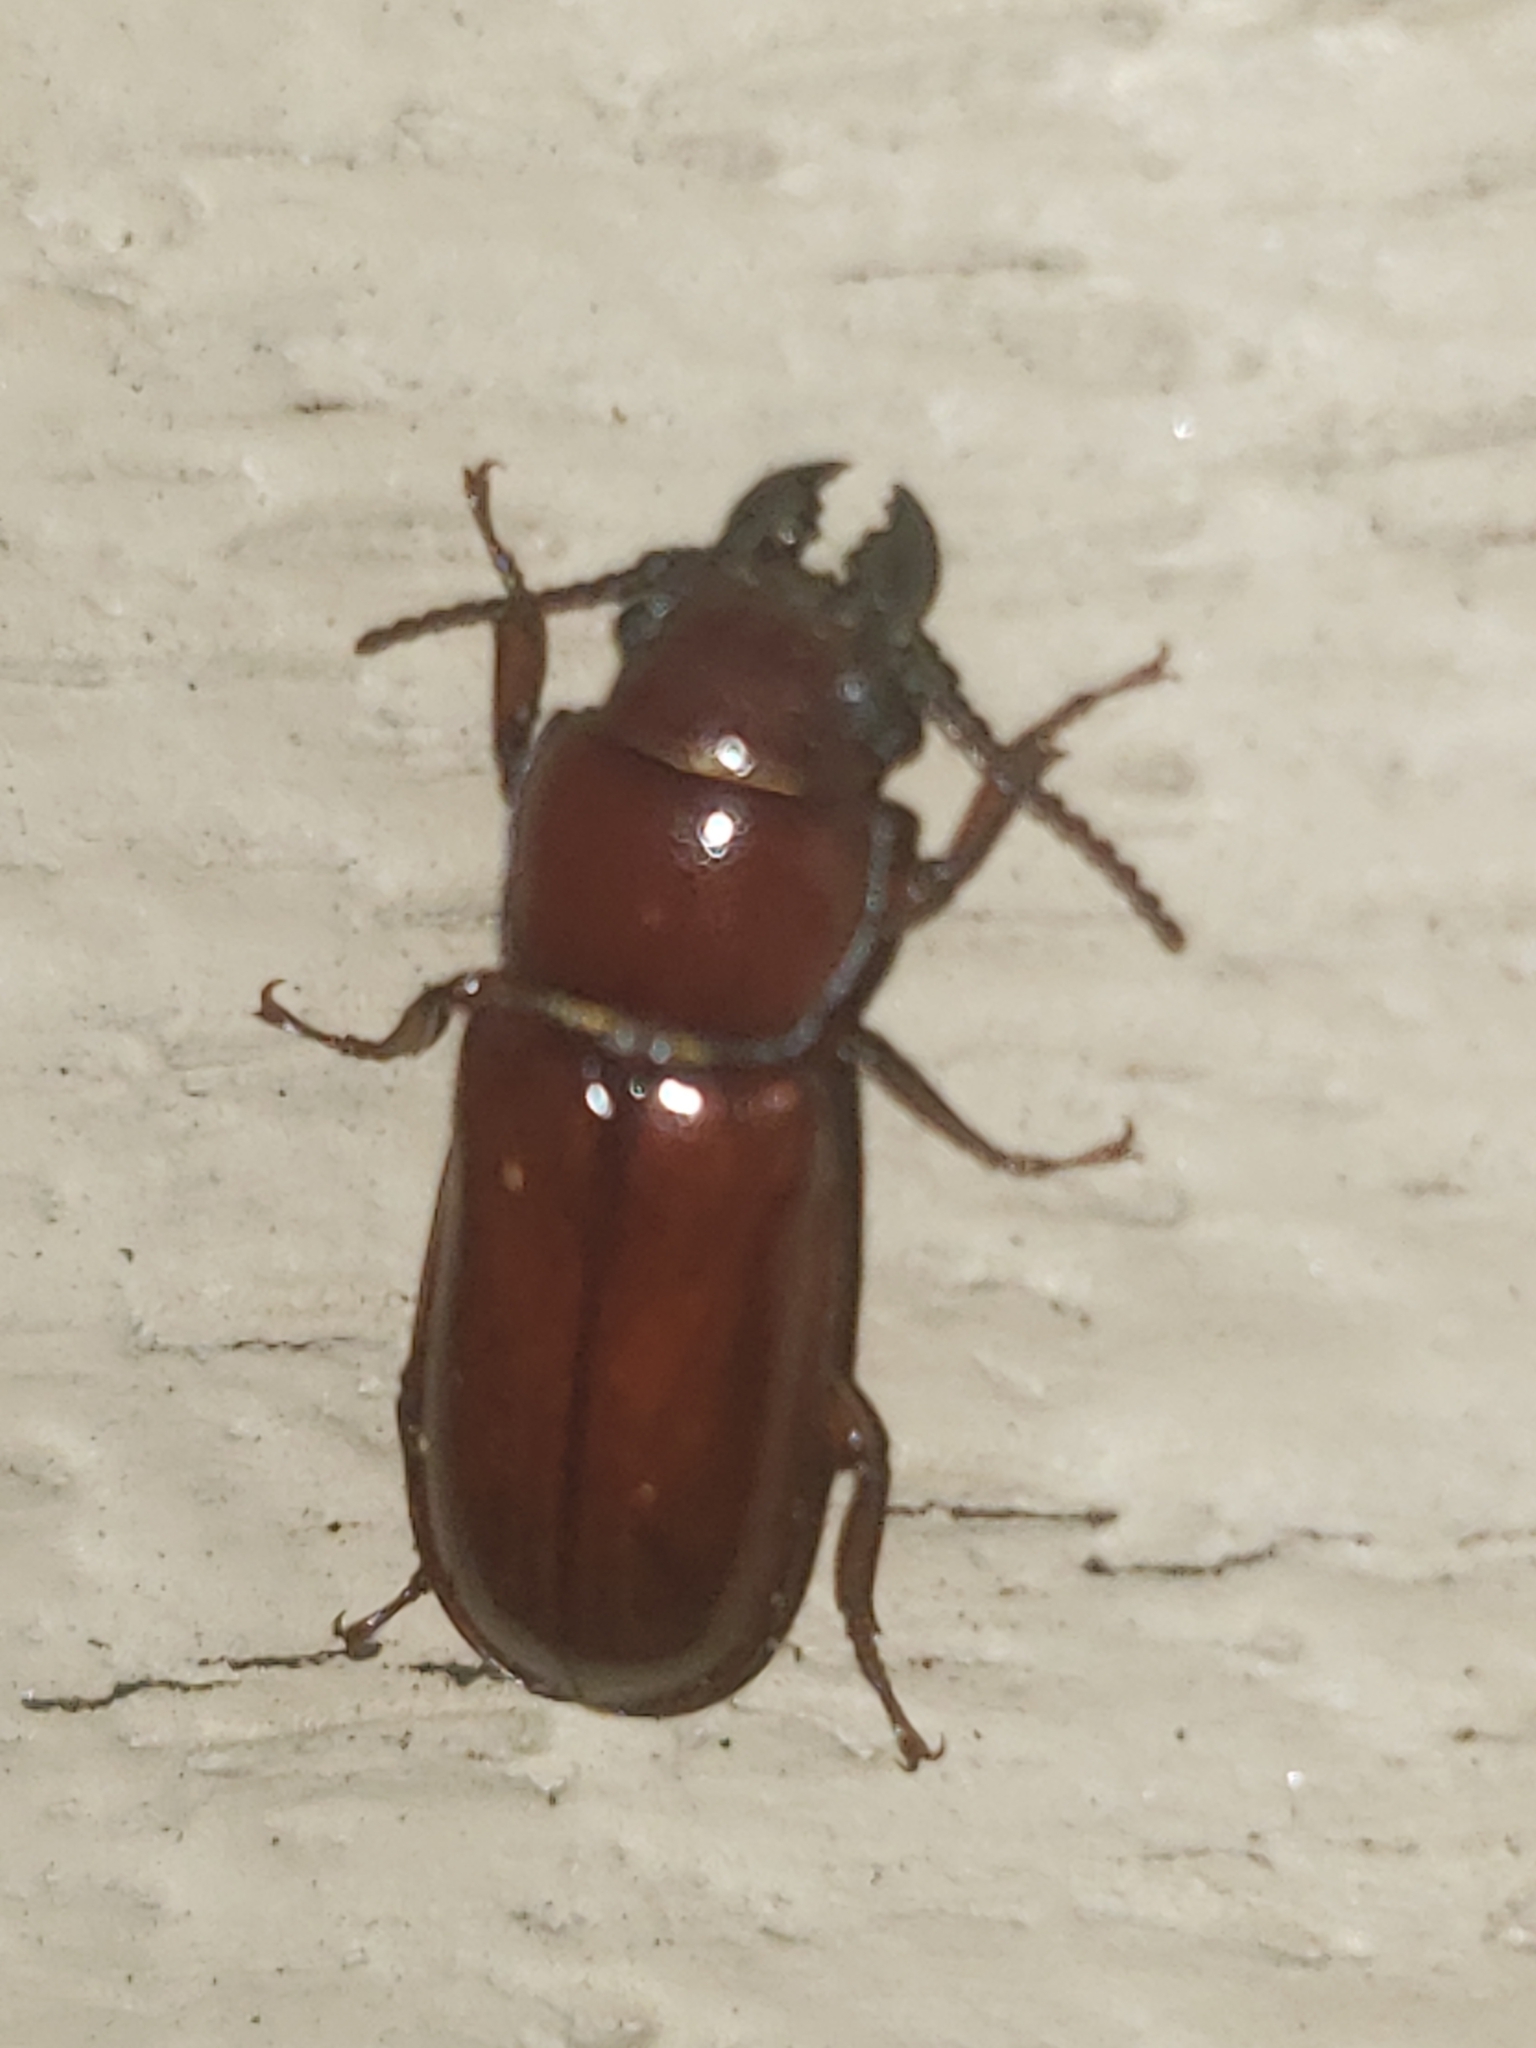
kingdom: Animalia
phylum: Arthropoda
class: Insecta
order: Coleoptera
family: Cerambycidae
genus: Neandra
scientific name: Neandra brunnea
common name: Pole borer
